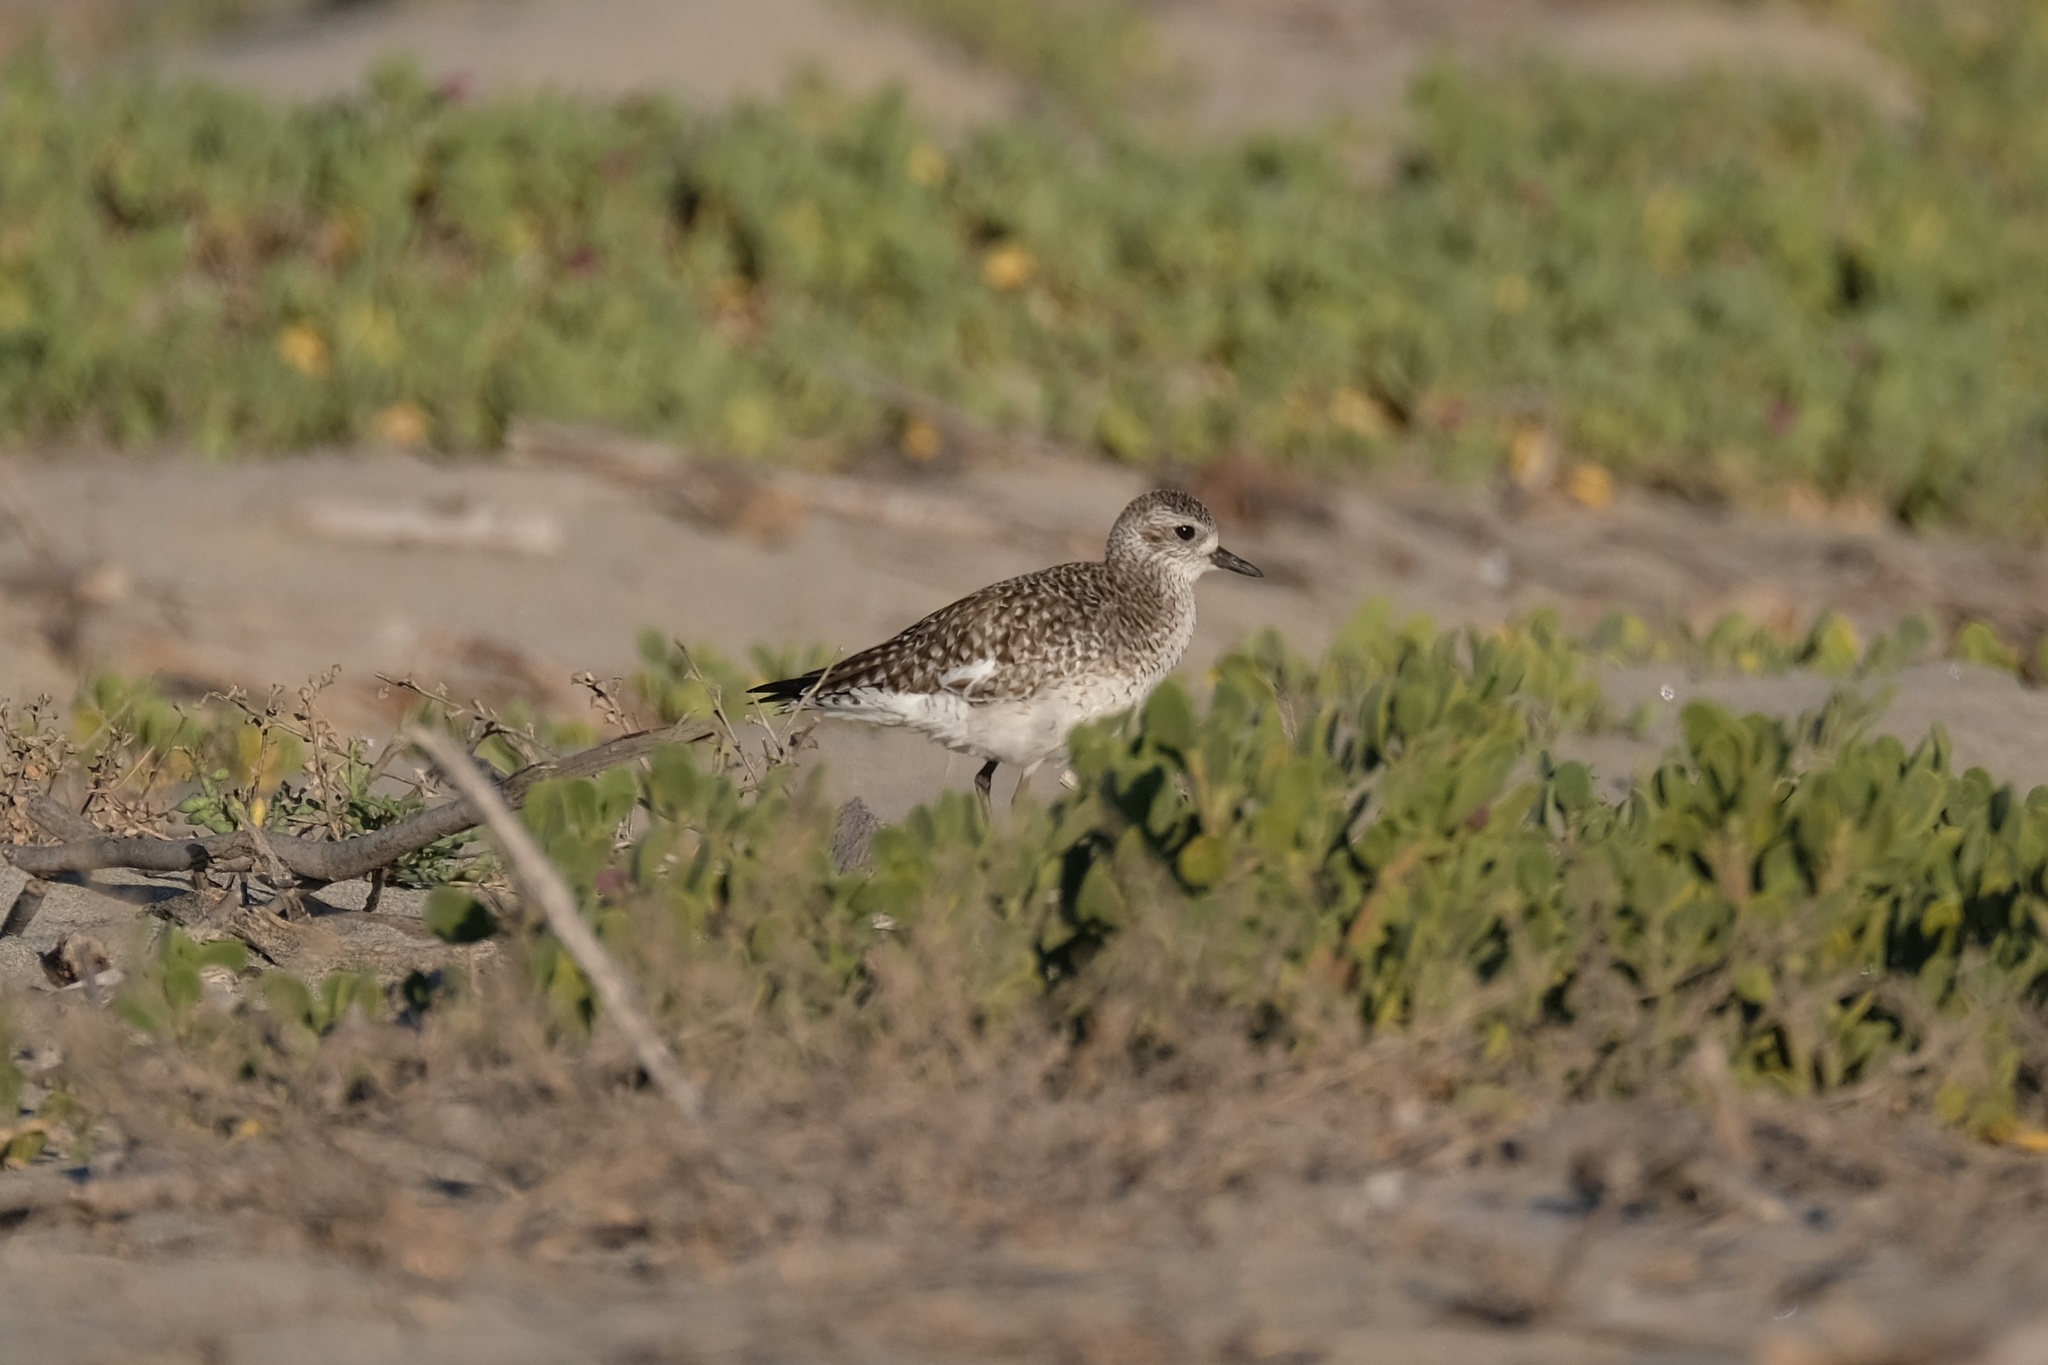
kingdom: Animalia
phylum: Chordata
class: Aves
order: Charadriiformes
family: Charadriidae
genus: Pluvialis
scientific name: Pluvialis squatarola
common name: Grey plover
